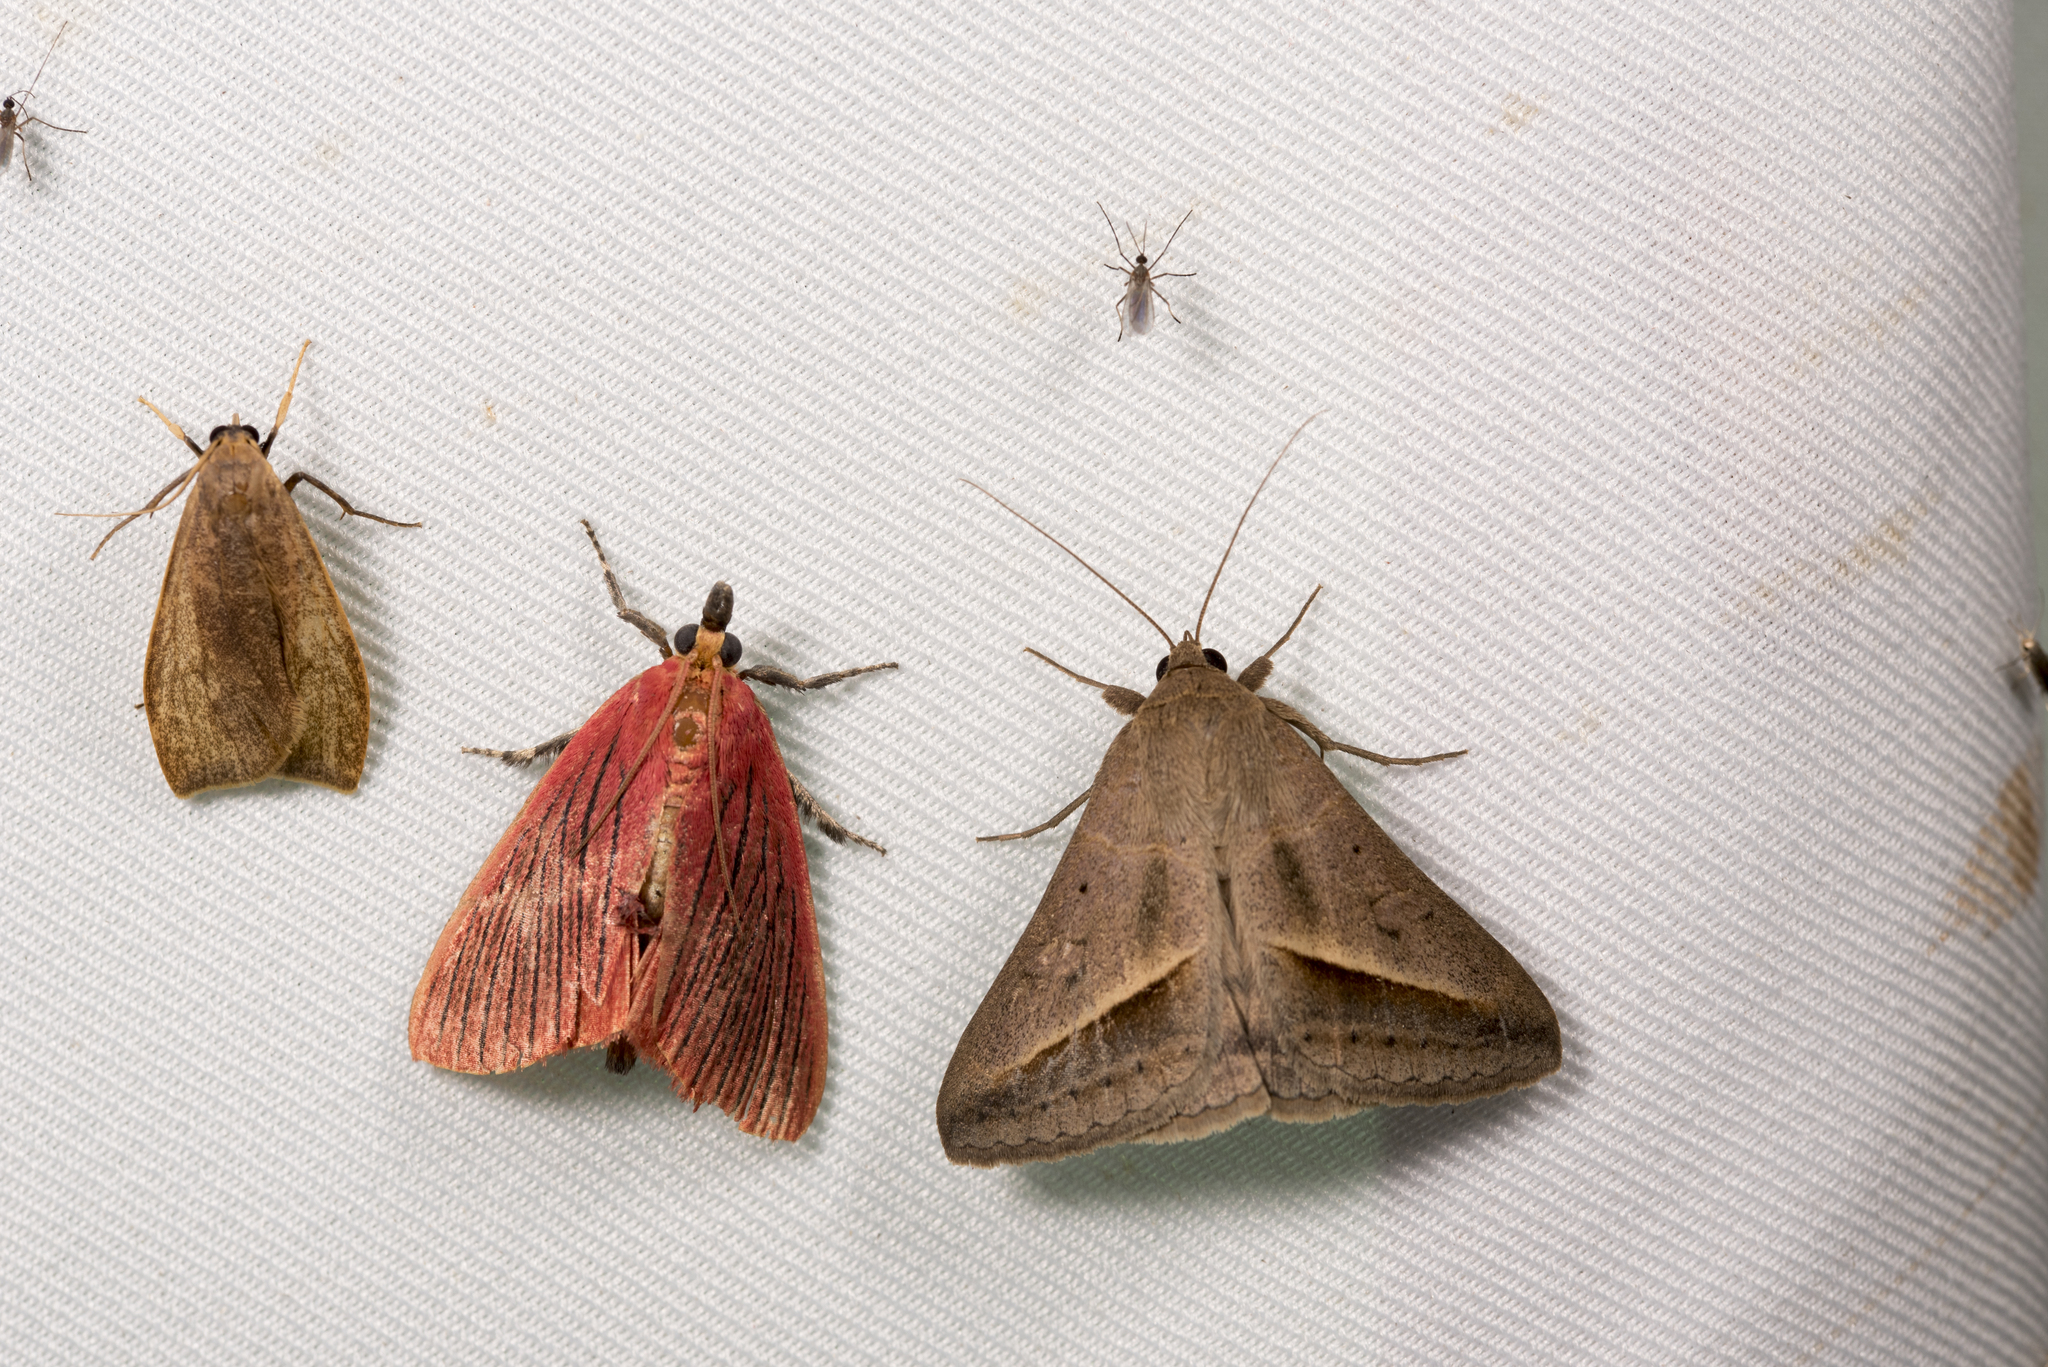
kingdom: Animalia
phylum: Arthropoda
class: Insecta
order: Lepidoptera
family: Erebidae
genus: Mocis
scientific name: Mocis frugalis
